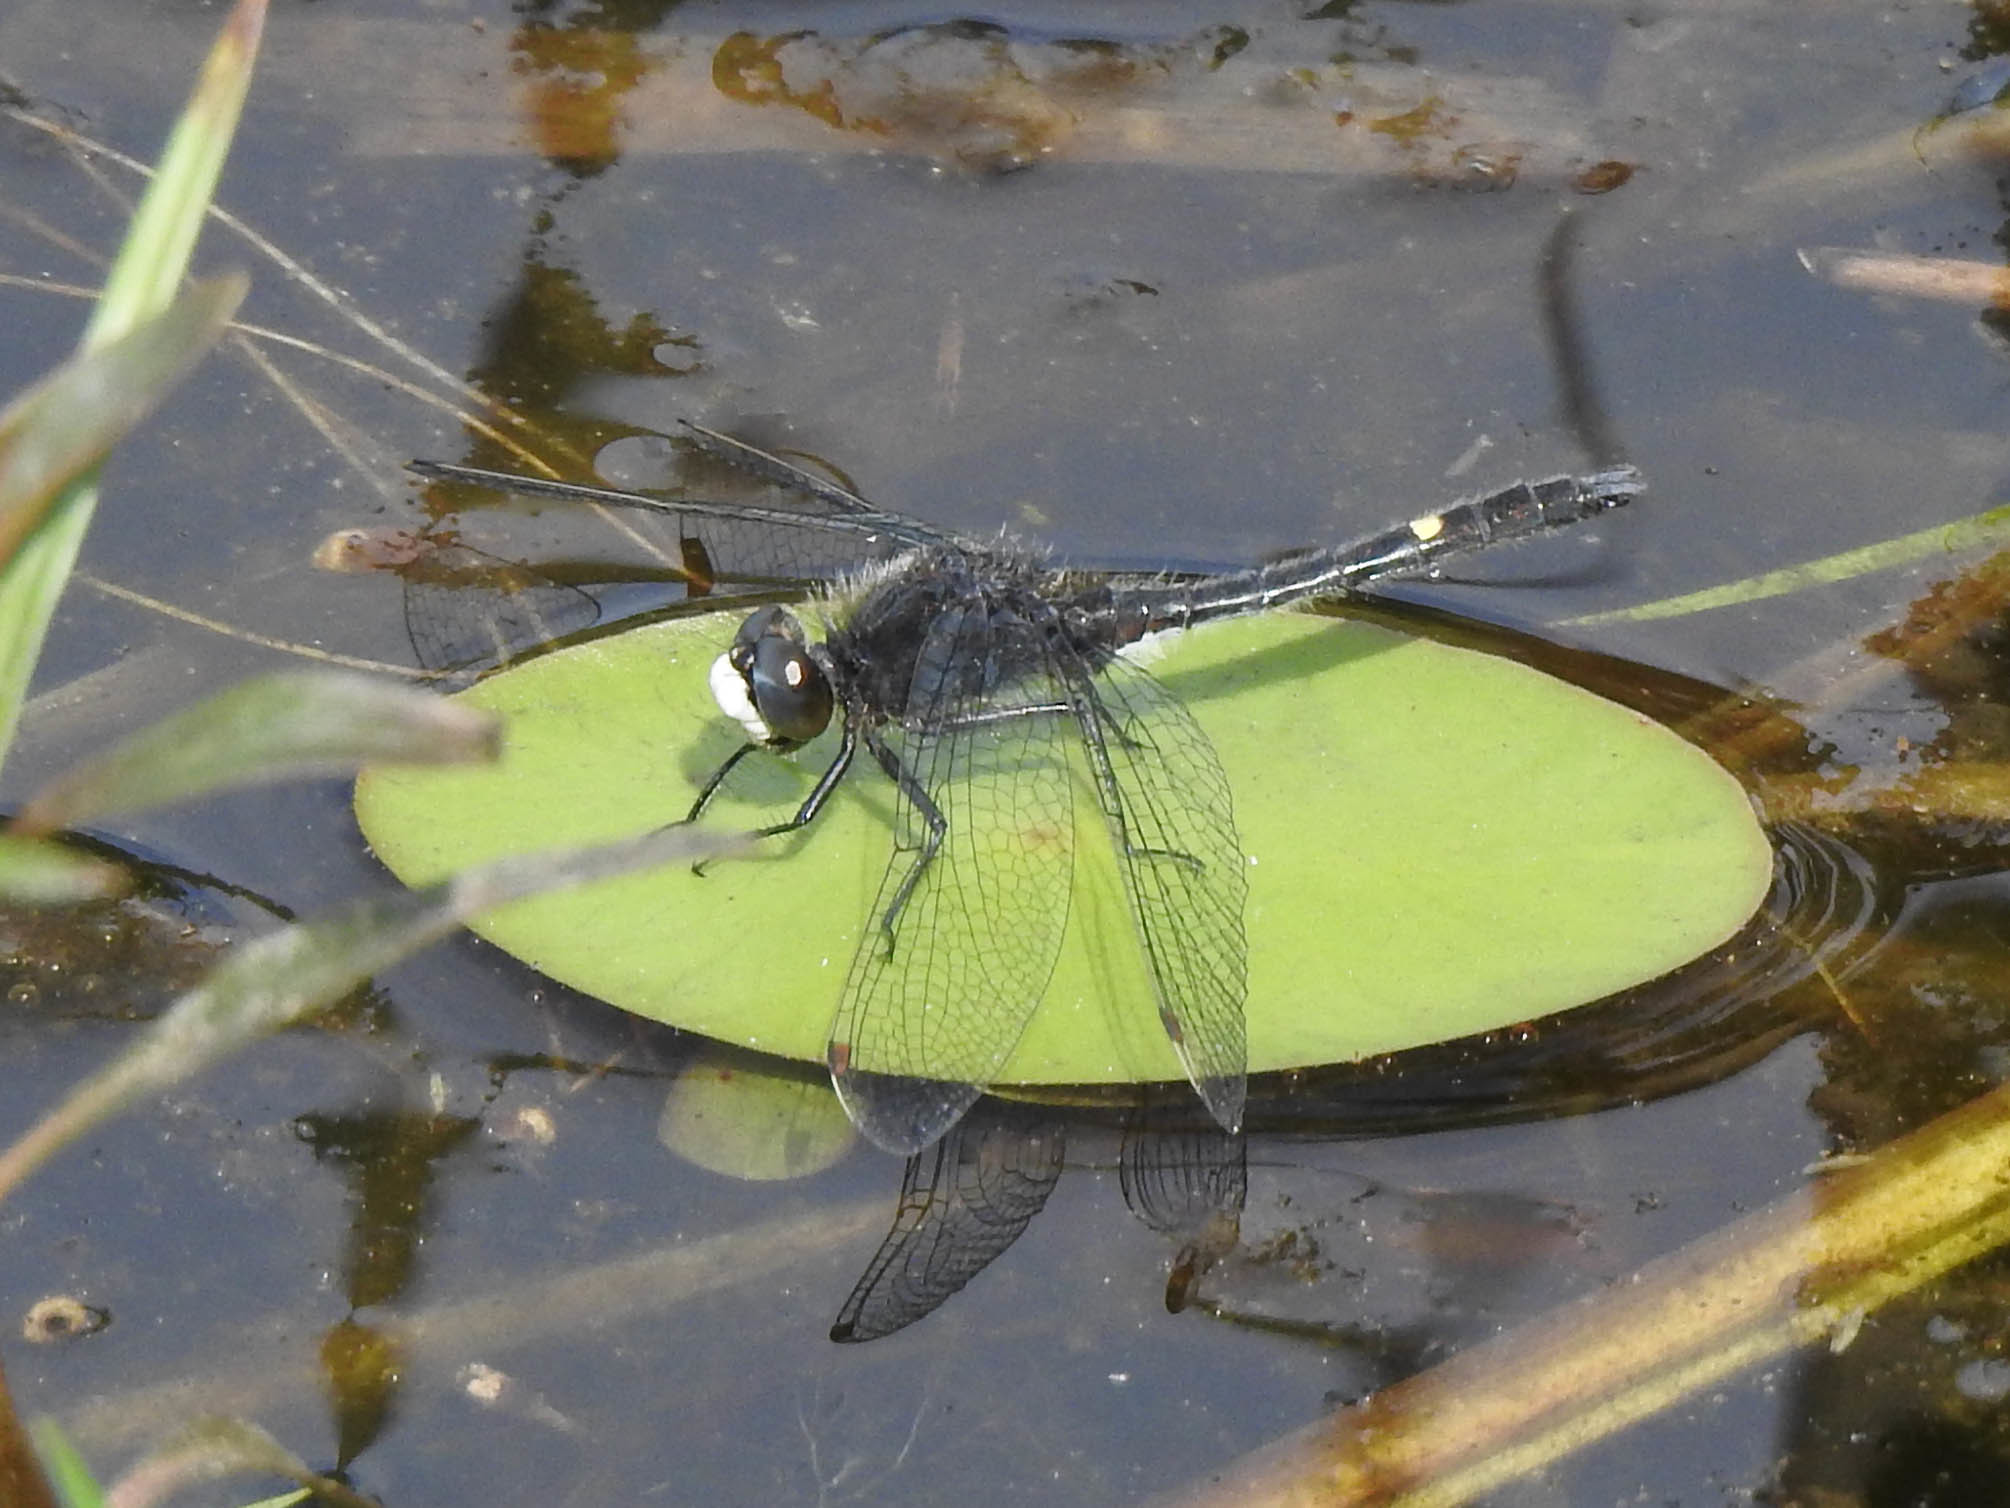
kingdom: Animalia
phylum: Arthropoda
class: Insecta
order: Odonata
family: Libellulidae
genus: Leucorrhinia
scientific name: Leucorrhinia intacta
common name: Dot-tailed whiteface
